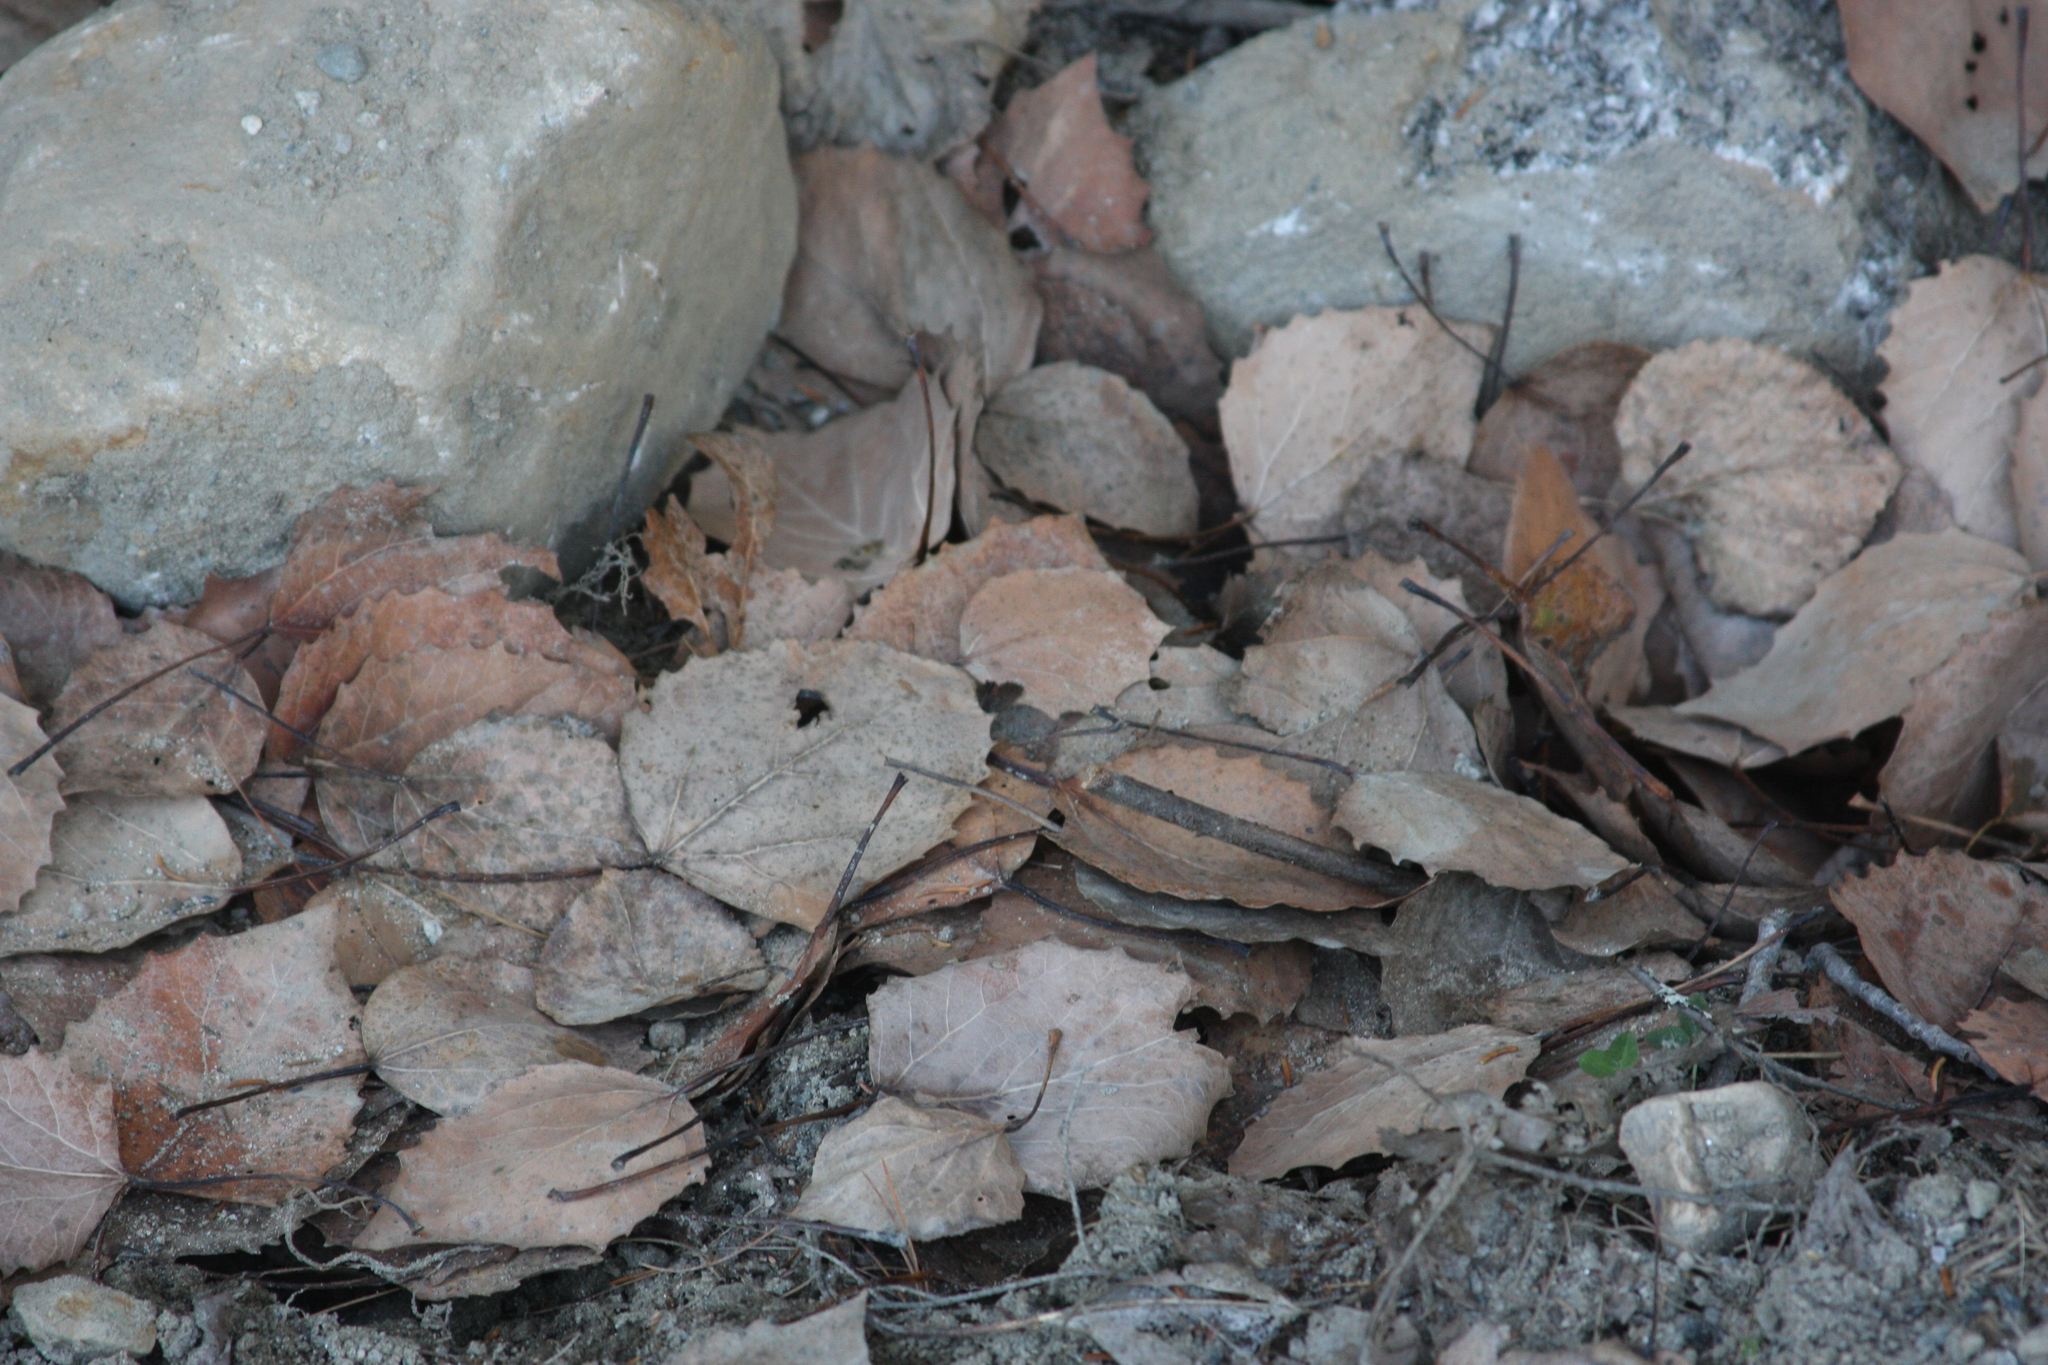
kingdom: Plantae
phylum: Tracheophyta
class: Magnoliopsida
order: Malpighiales
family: Salicaceae
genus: Populus
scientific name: Populus grandidentata
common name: Bigtooth aspen
